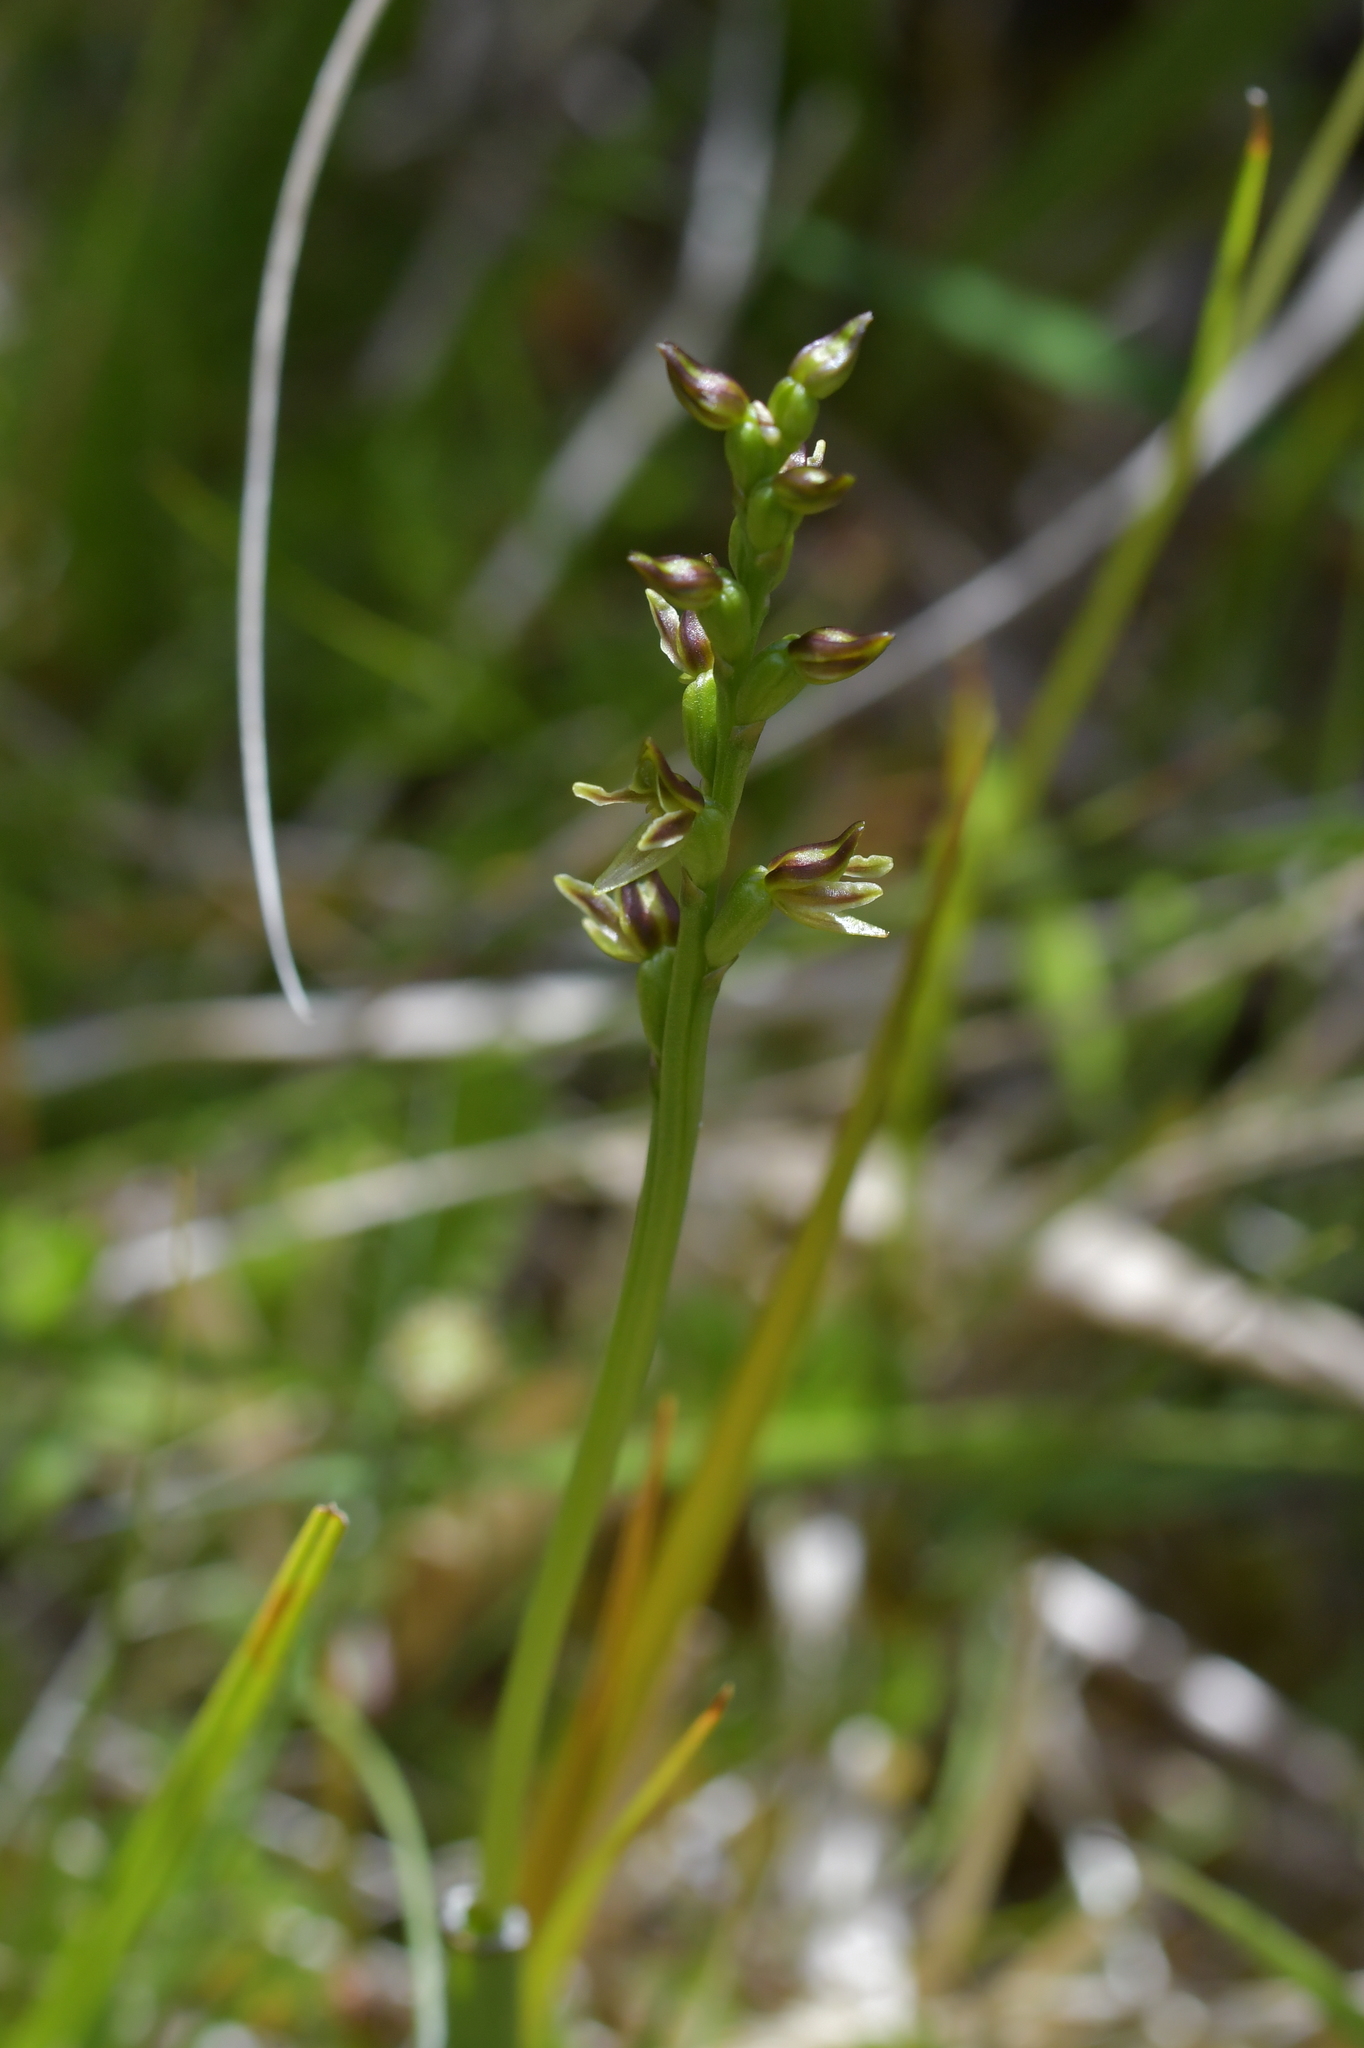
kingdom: Plantae
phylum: Tracheophyta
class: Liliopsida
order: Asparagales
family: Orchidaceae
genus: Prasophyllum
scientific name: Prasophyllum colensoi
